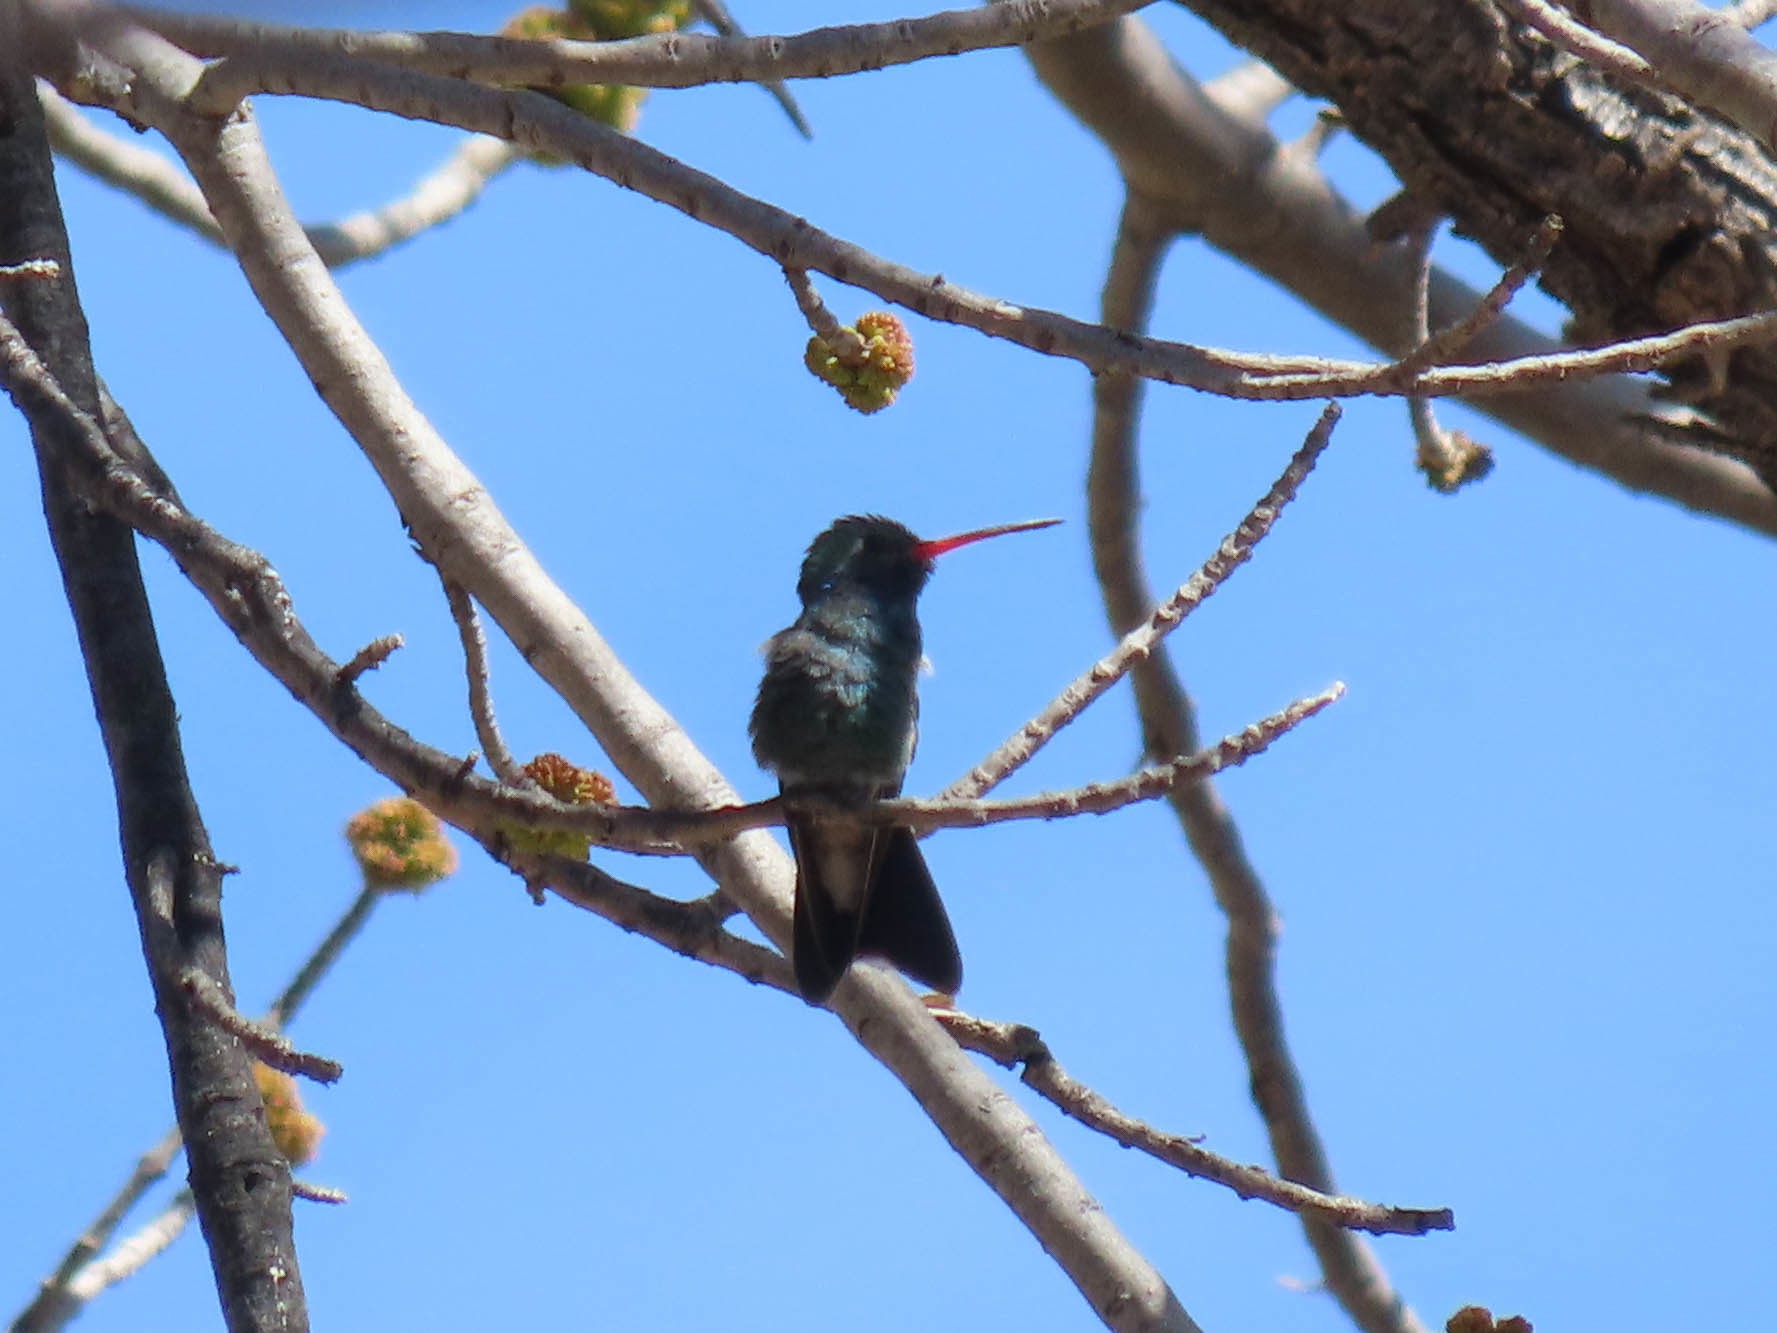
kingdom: Animalia
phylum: Chordata
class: Aves
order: Apodiformes
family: Trochilidae
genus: Cynanthus
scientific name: Cynanthus latirostris
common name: Broad-billed hummingbird
